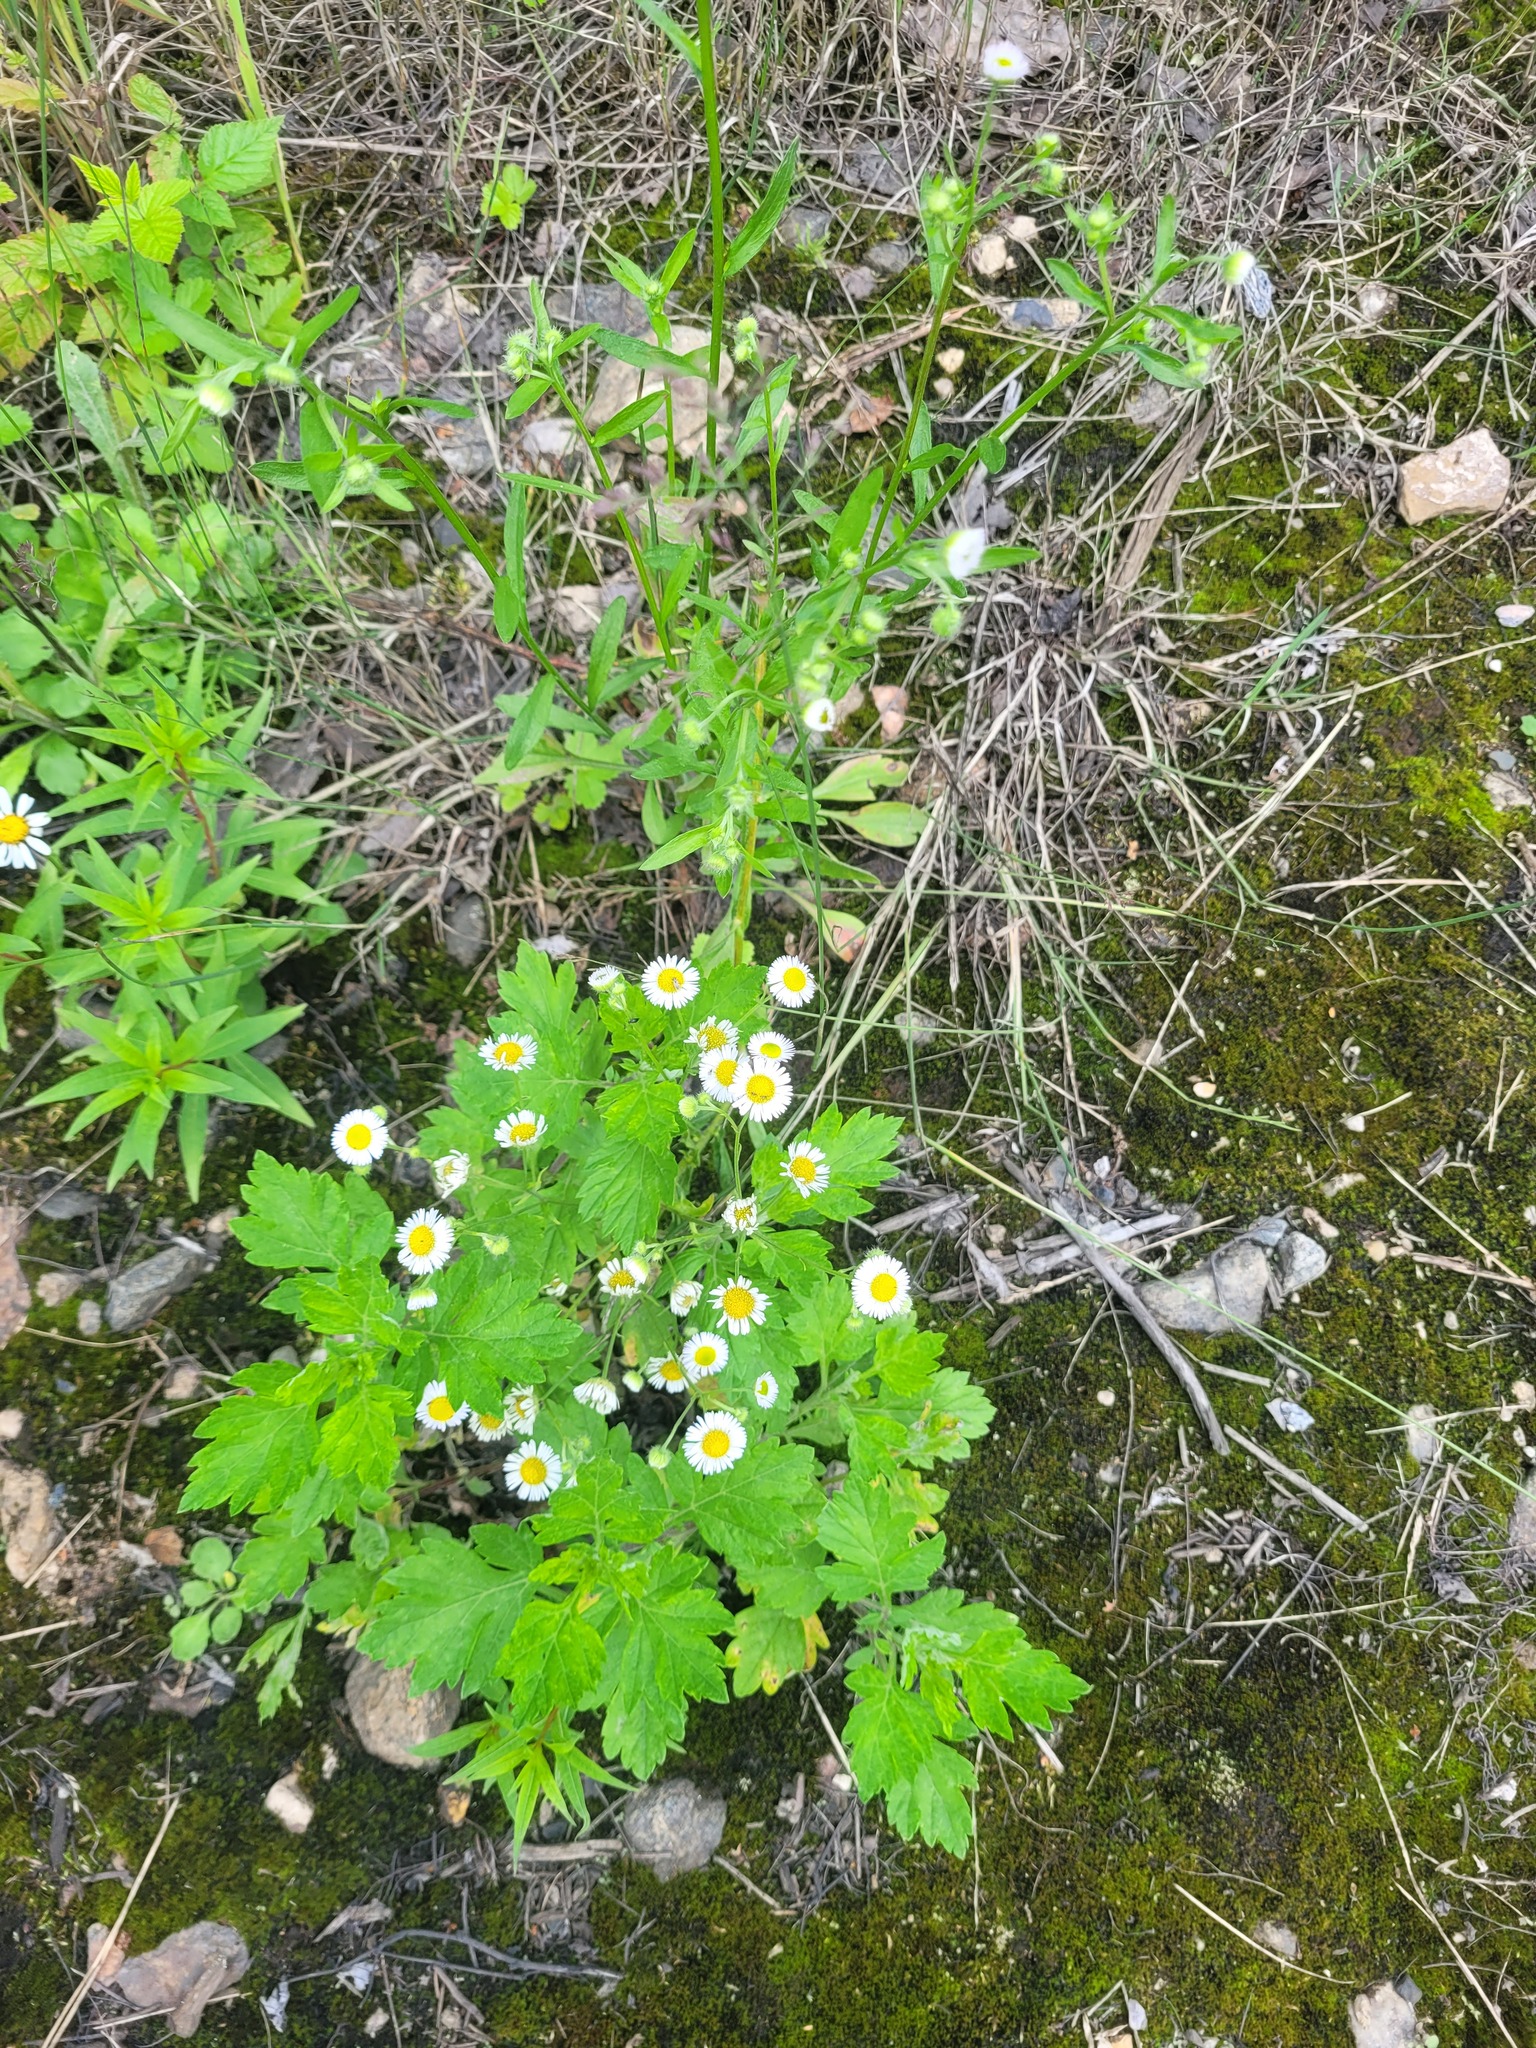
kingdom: Plantae
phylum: Tracheophyta
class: Magnoliopsida
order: Asterales
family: Asteraceae
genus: Erigeron
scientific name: Erigeron annuus
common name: Tall fleabane
